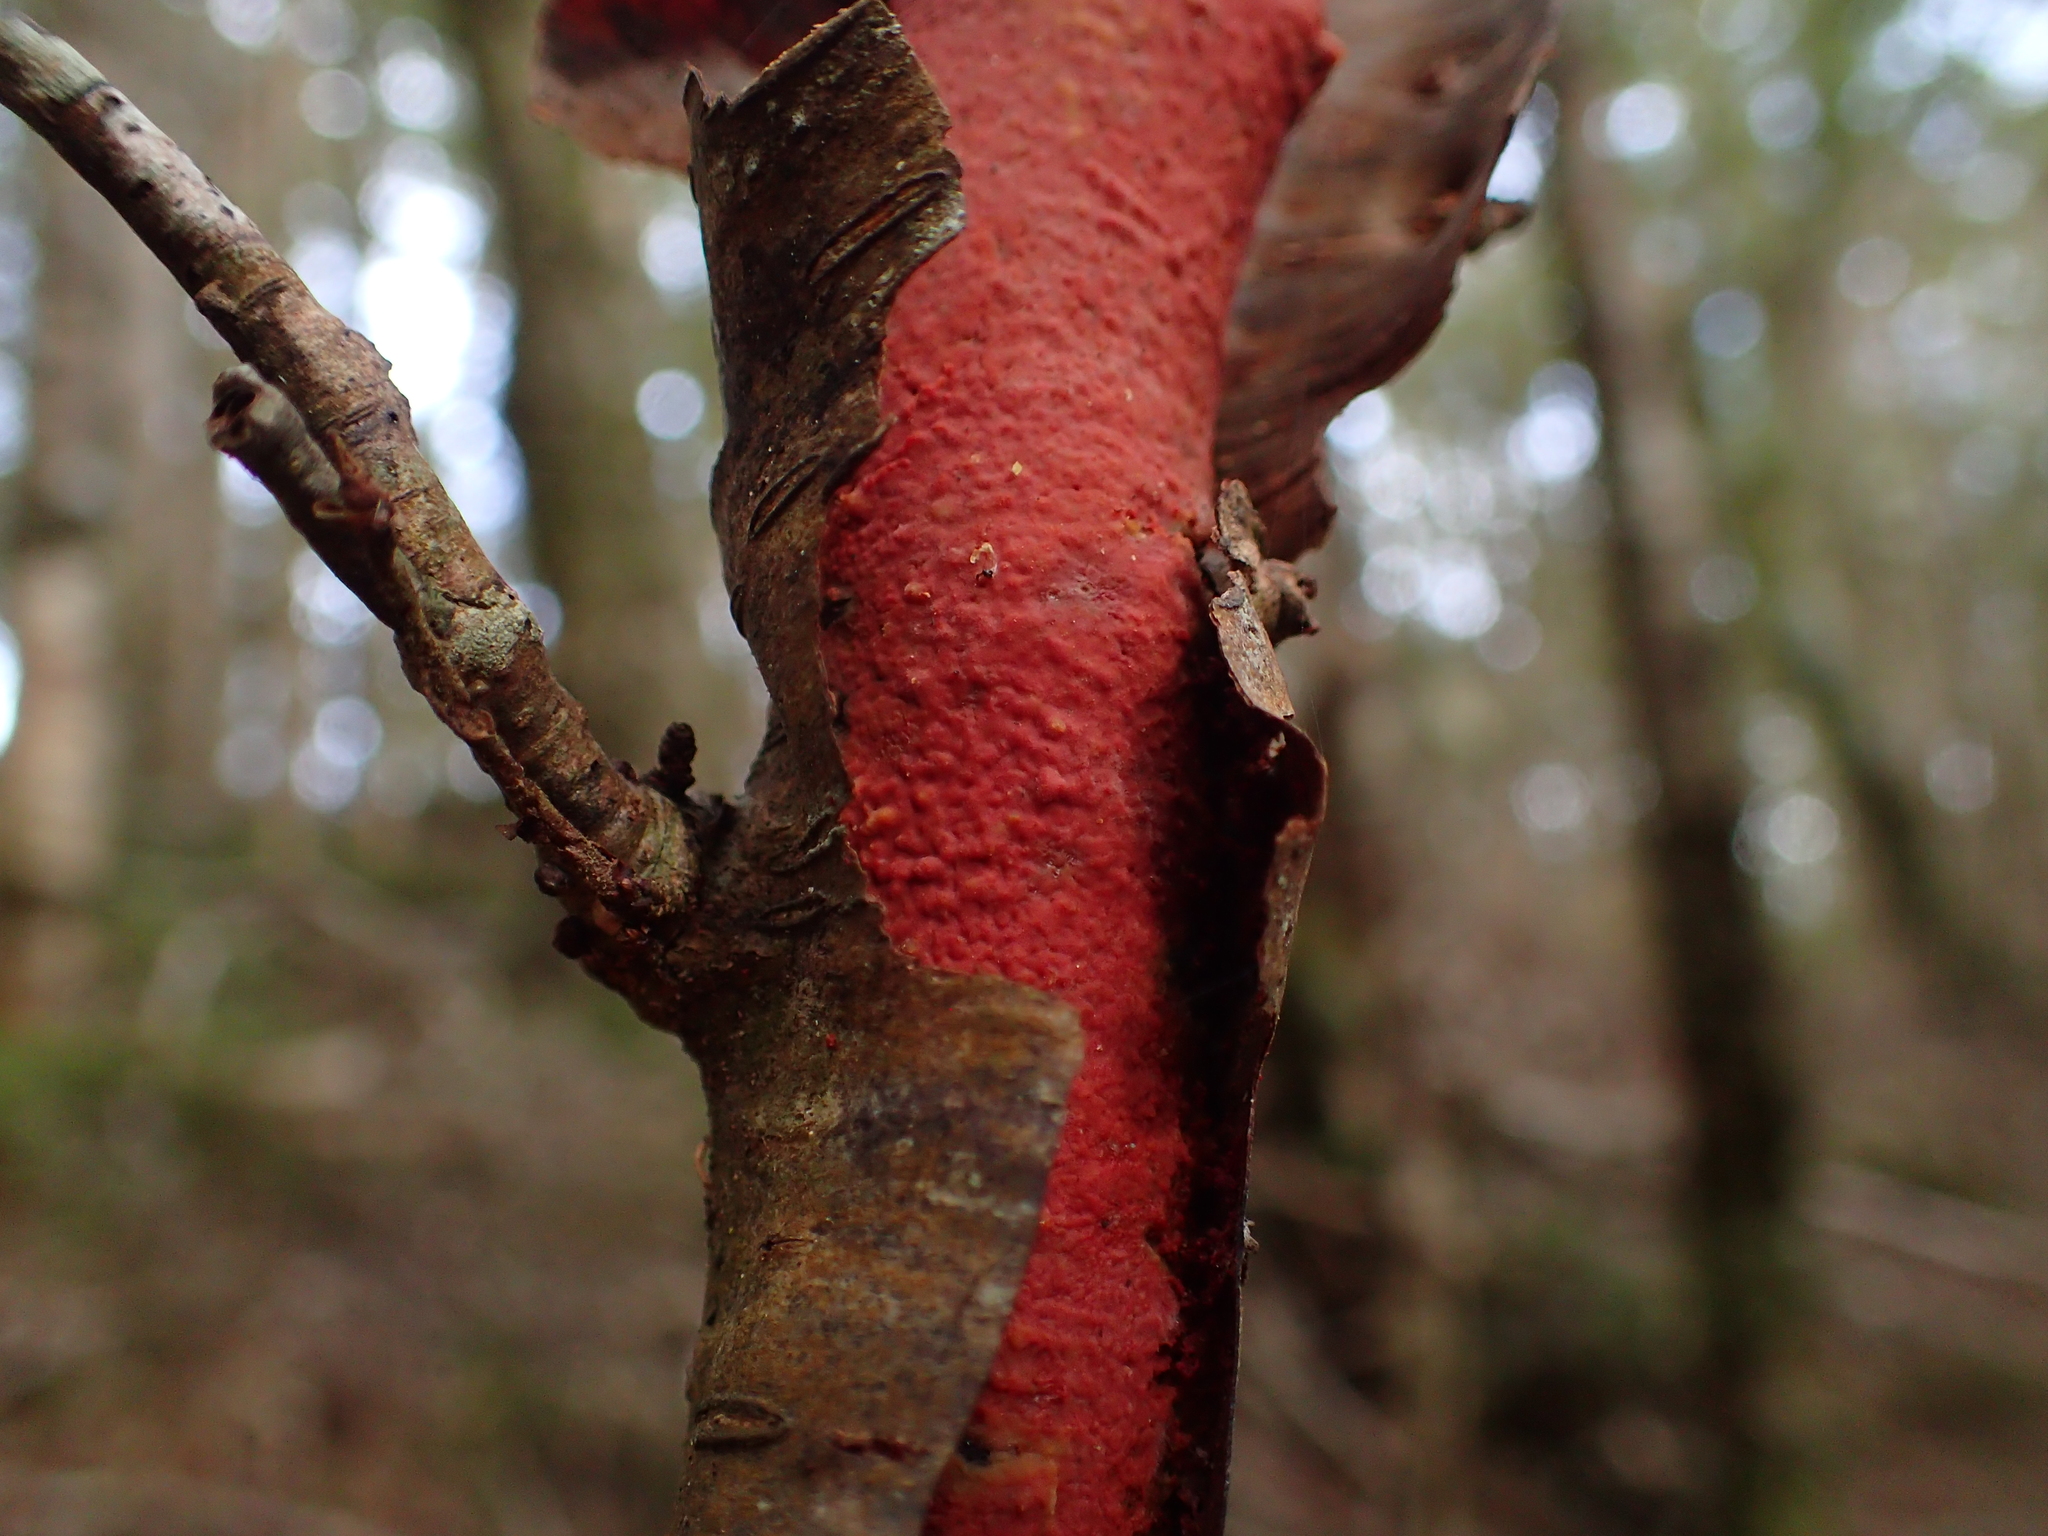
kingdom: Fungi
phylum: Basidiomycota
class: Agaricomycetes
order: Corticiales
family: Vuilleminiaceae
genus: Australovuilleminia
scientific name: Australovuilleminia coccinea
